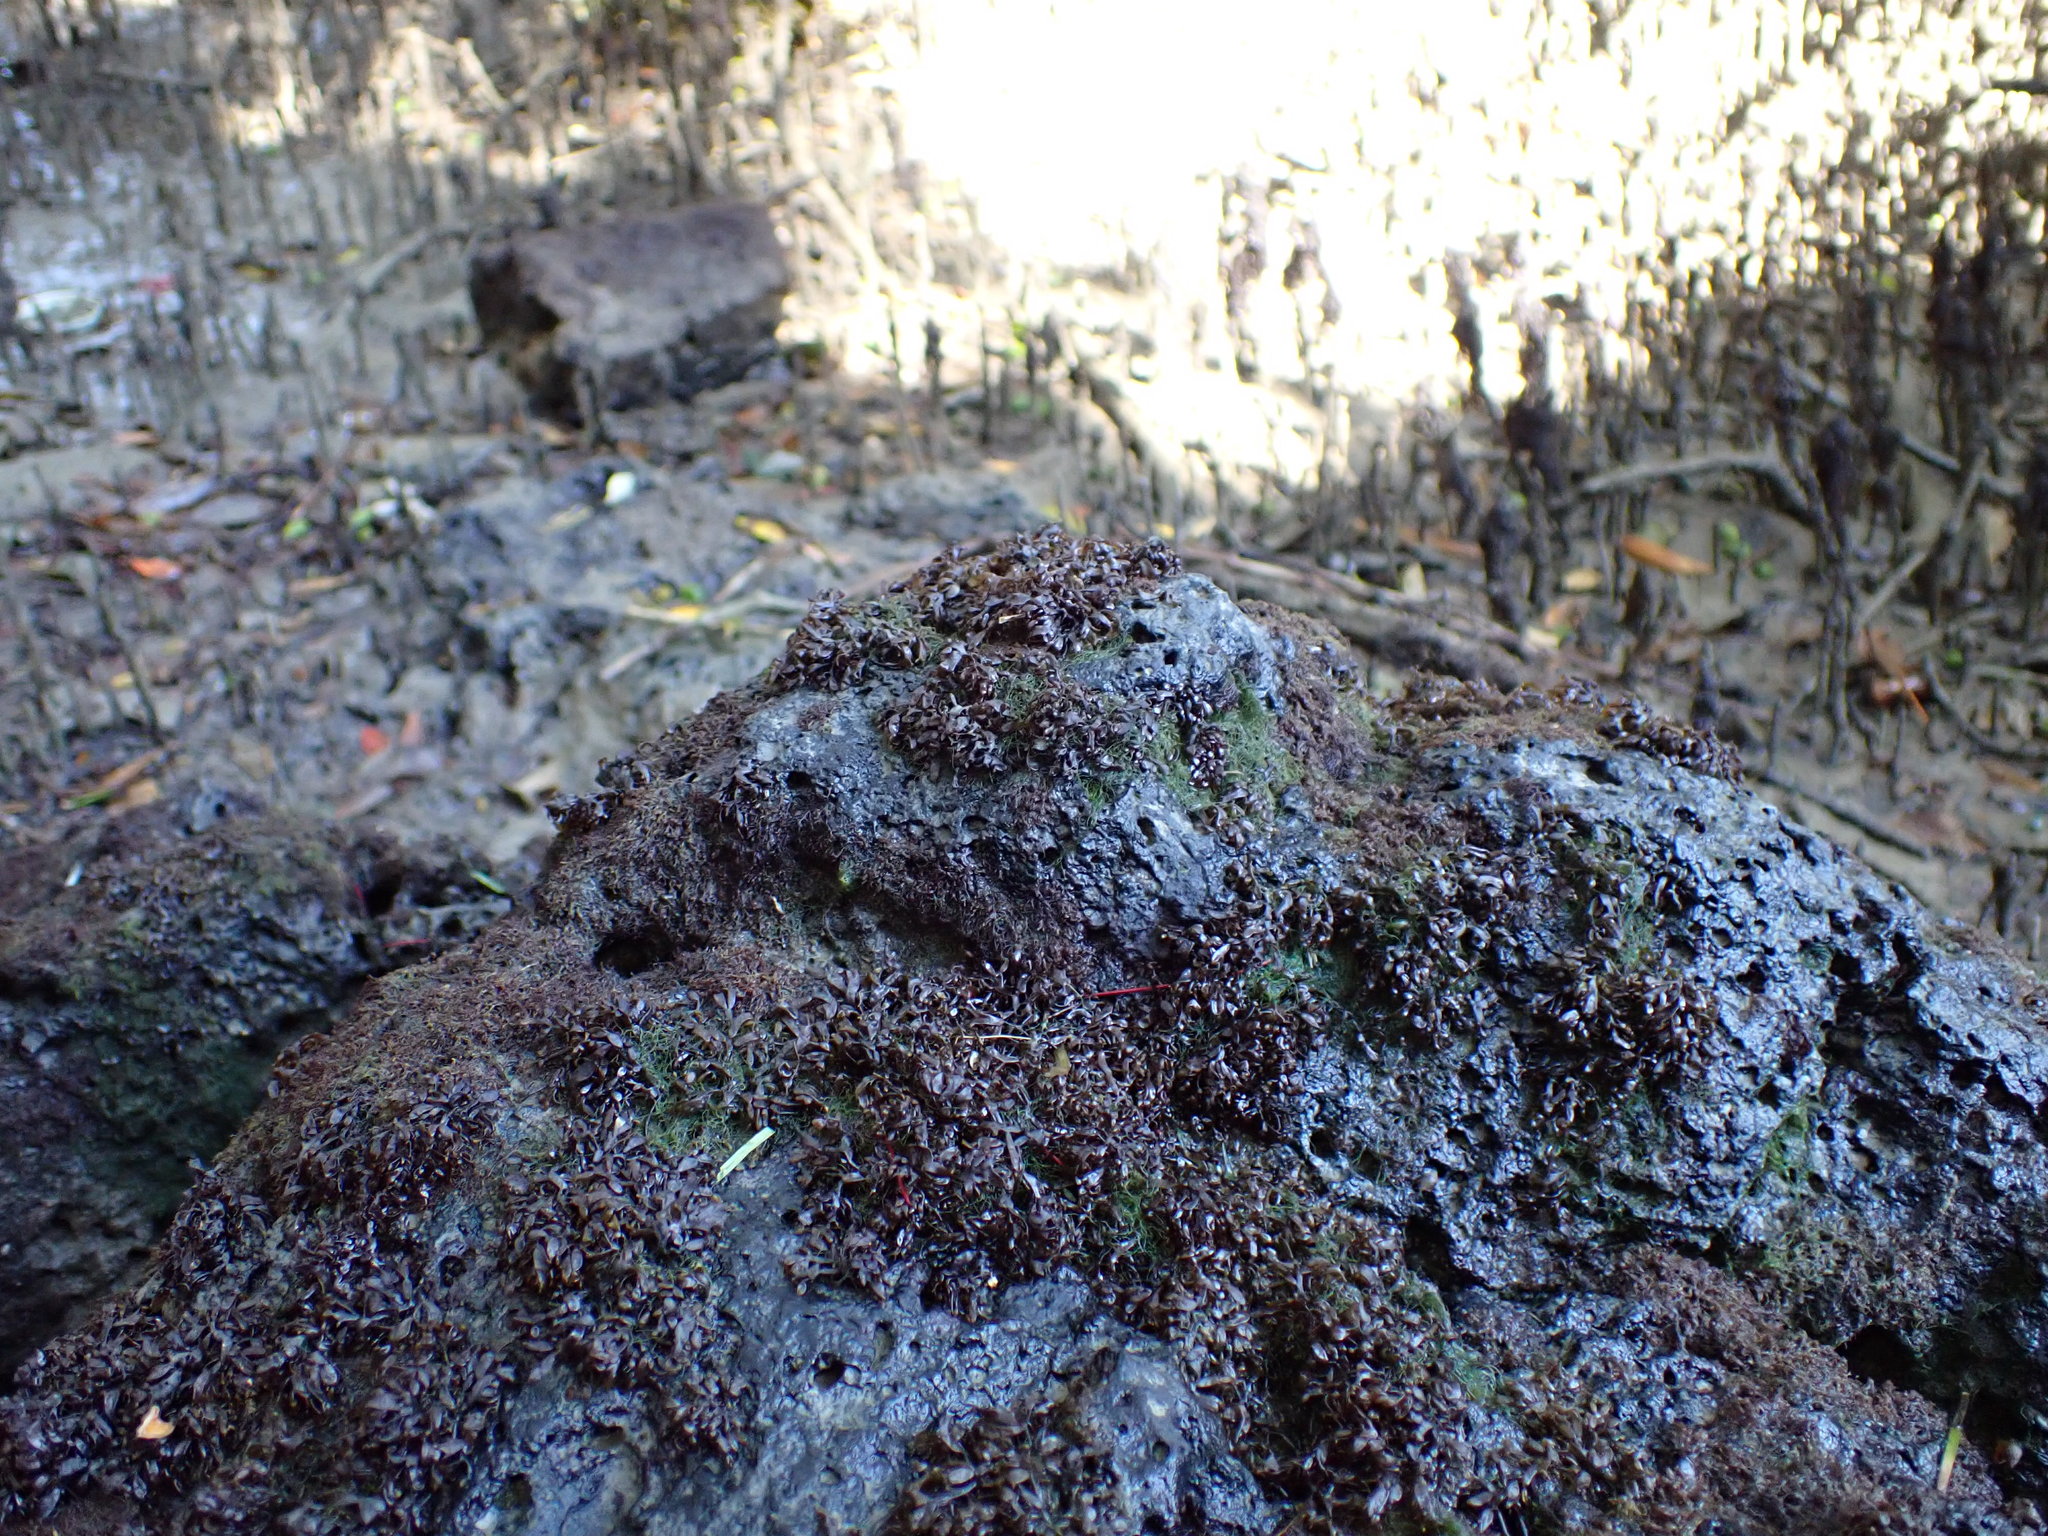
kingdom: Plantae
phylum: Rhodophyta
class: Florideophyceae
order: Gigartinales
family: Caulacanthaceae
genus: Catenella
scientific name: Catenella nipae
